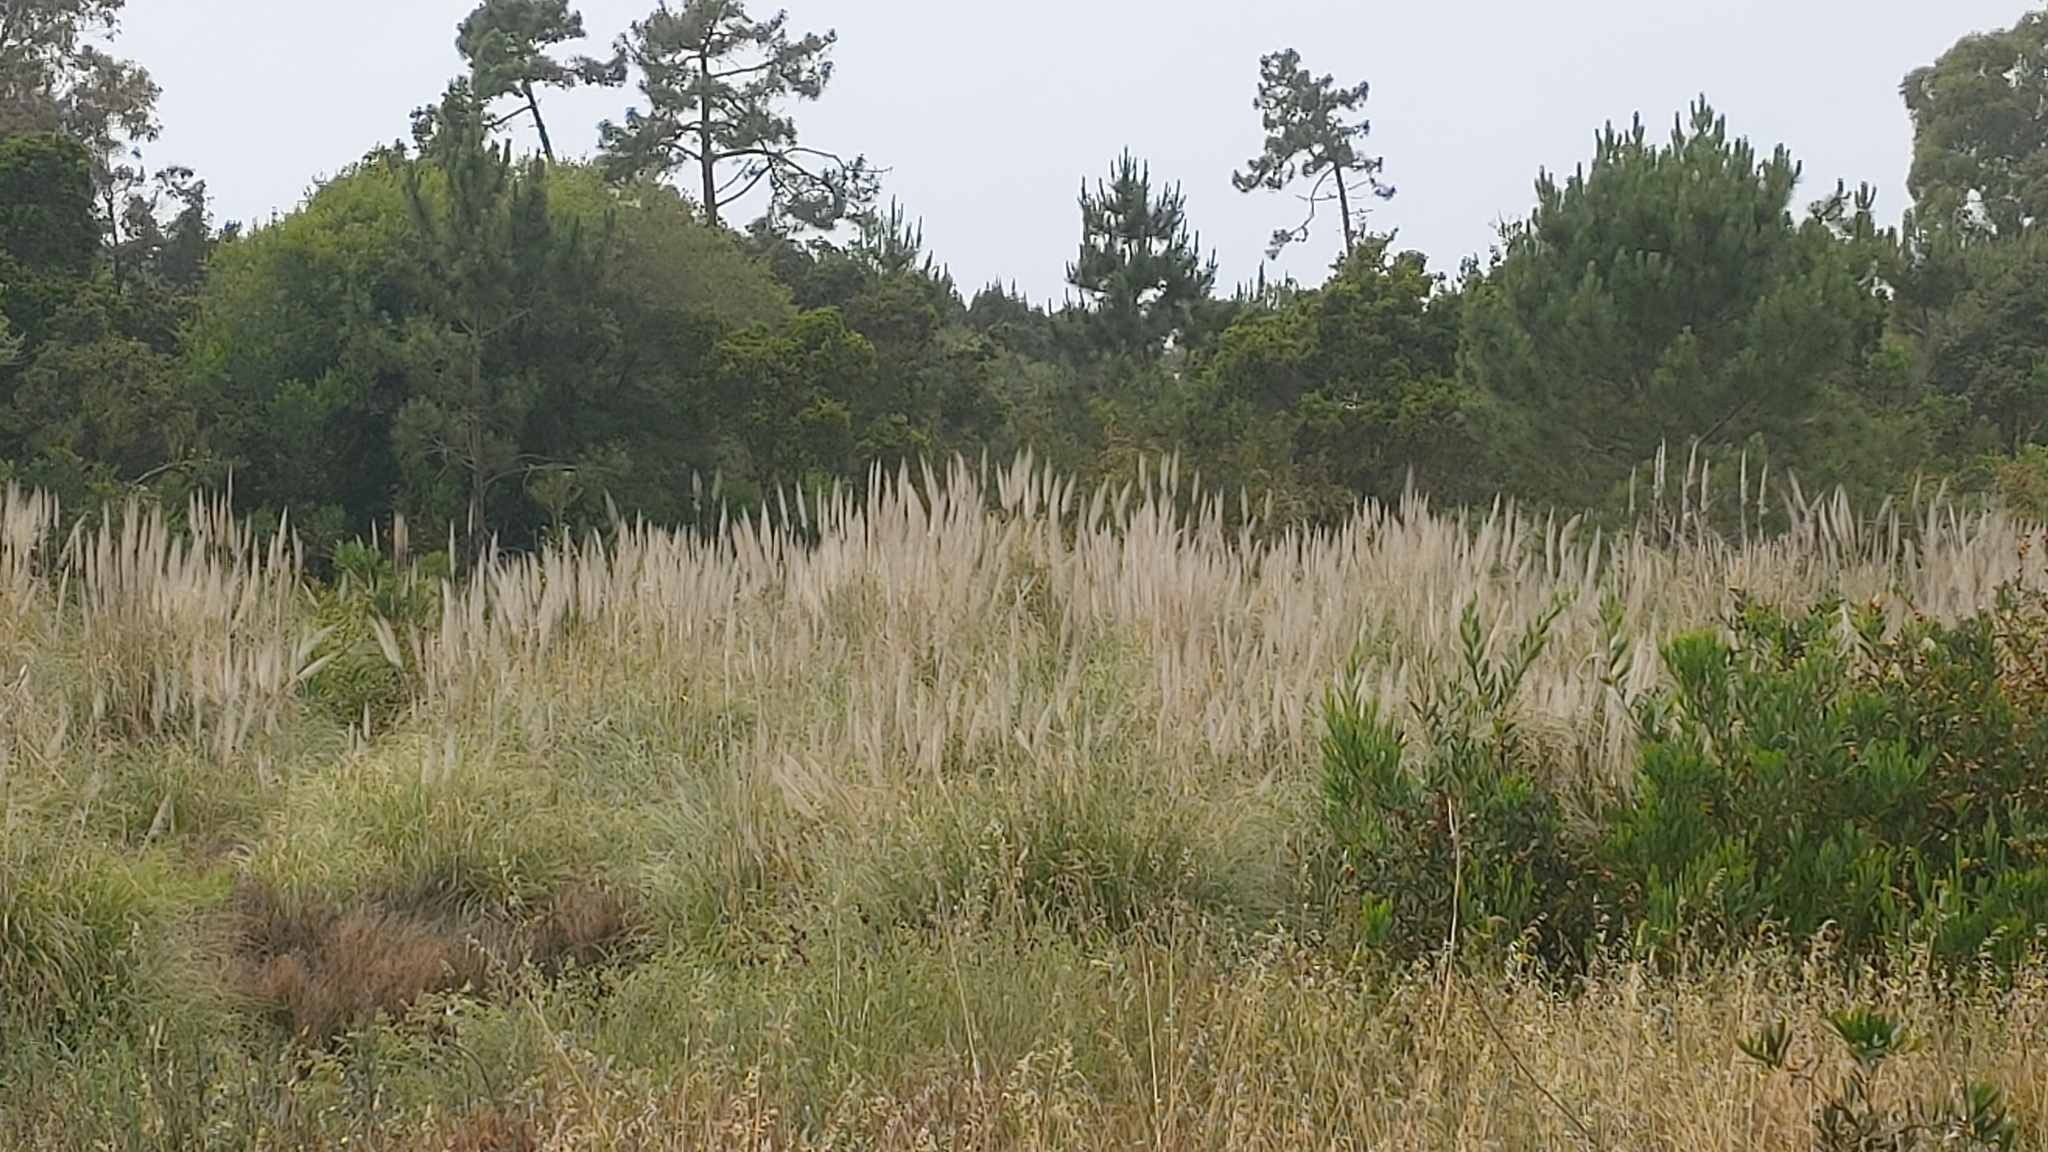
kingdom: Plantae
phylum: Tracheophyta
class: Liliopsida
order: Poales
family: Poaceae
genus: Cortaderia
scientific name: Cortaderia selloana
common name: Uruguayan pampas grass
